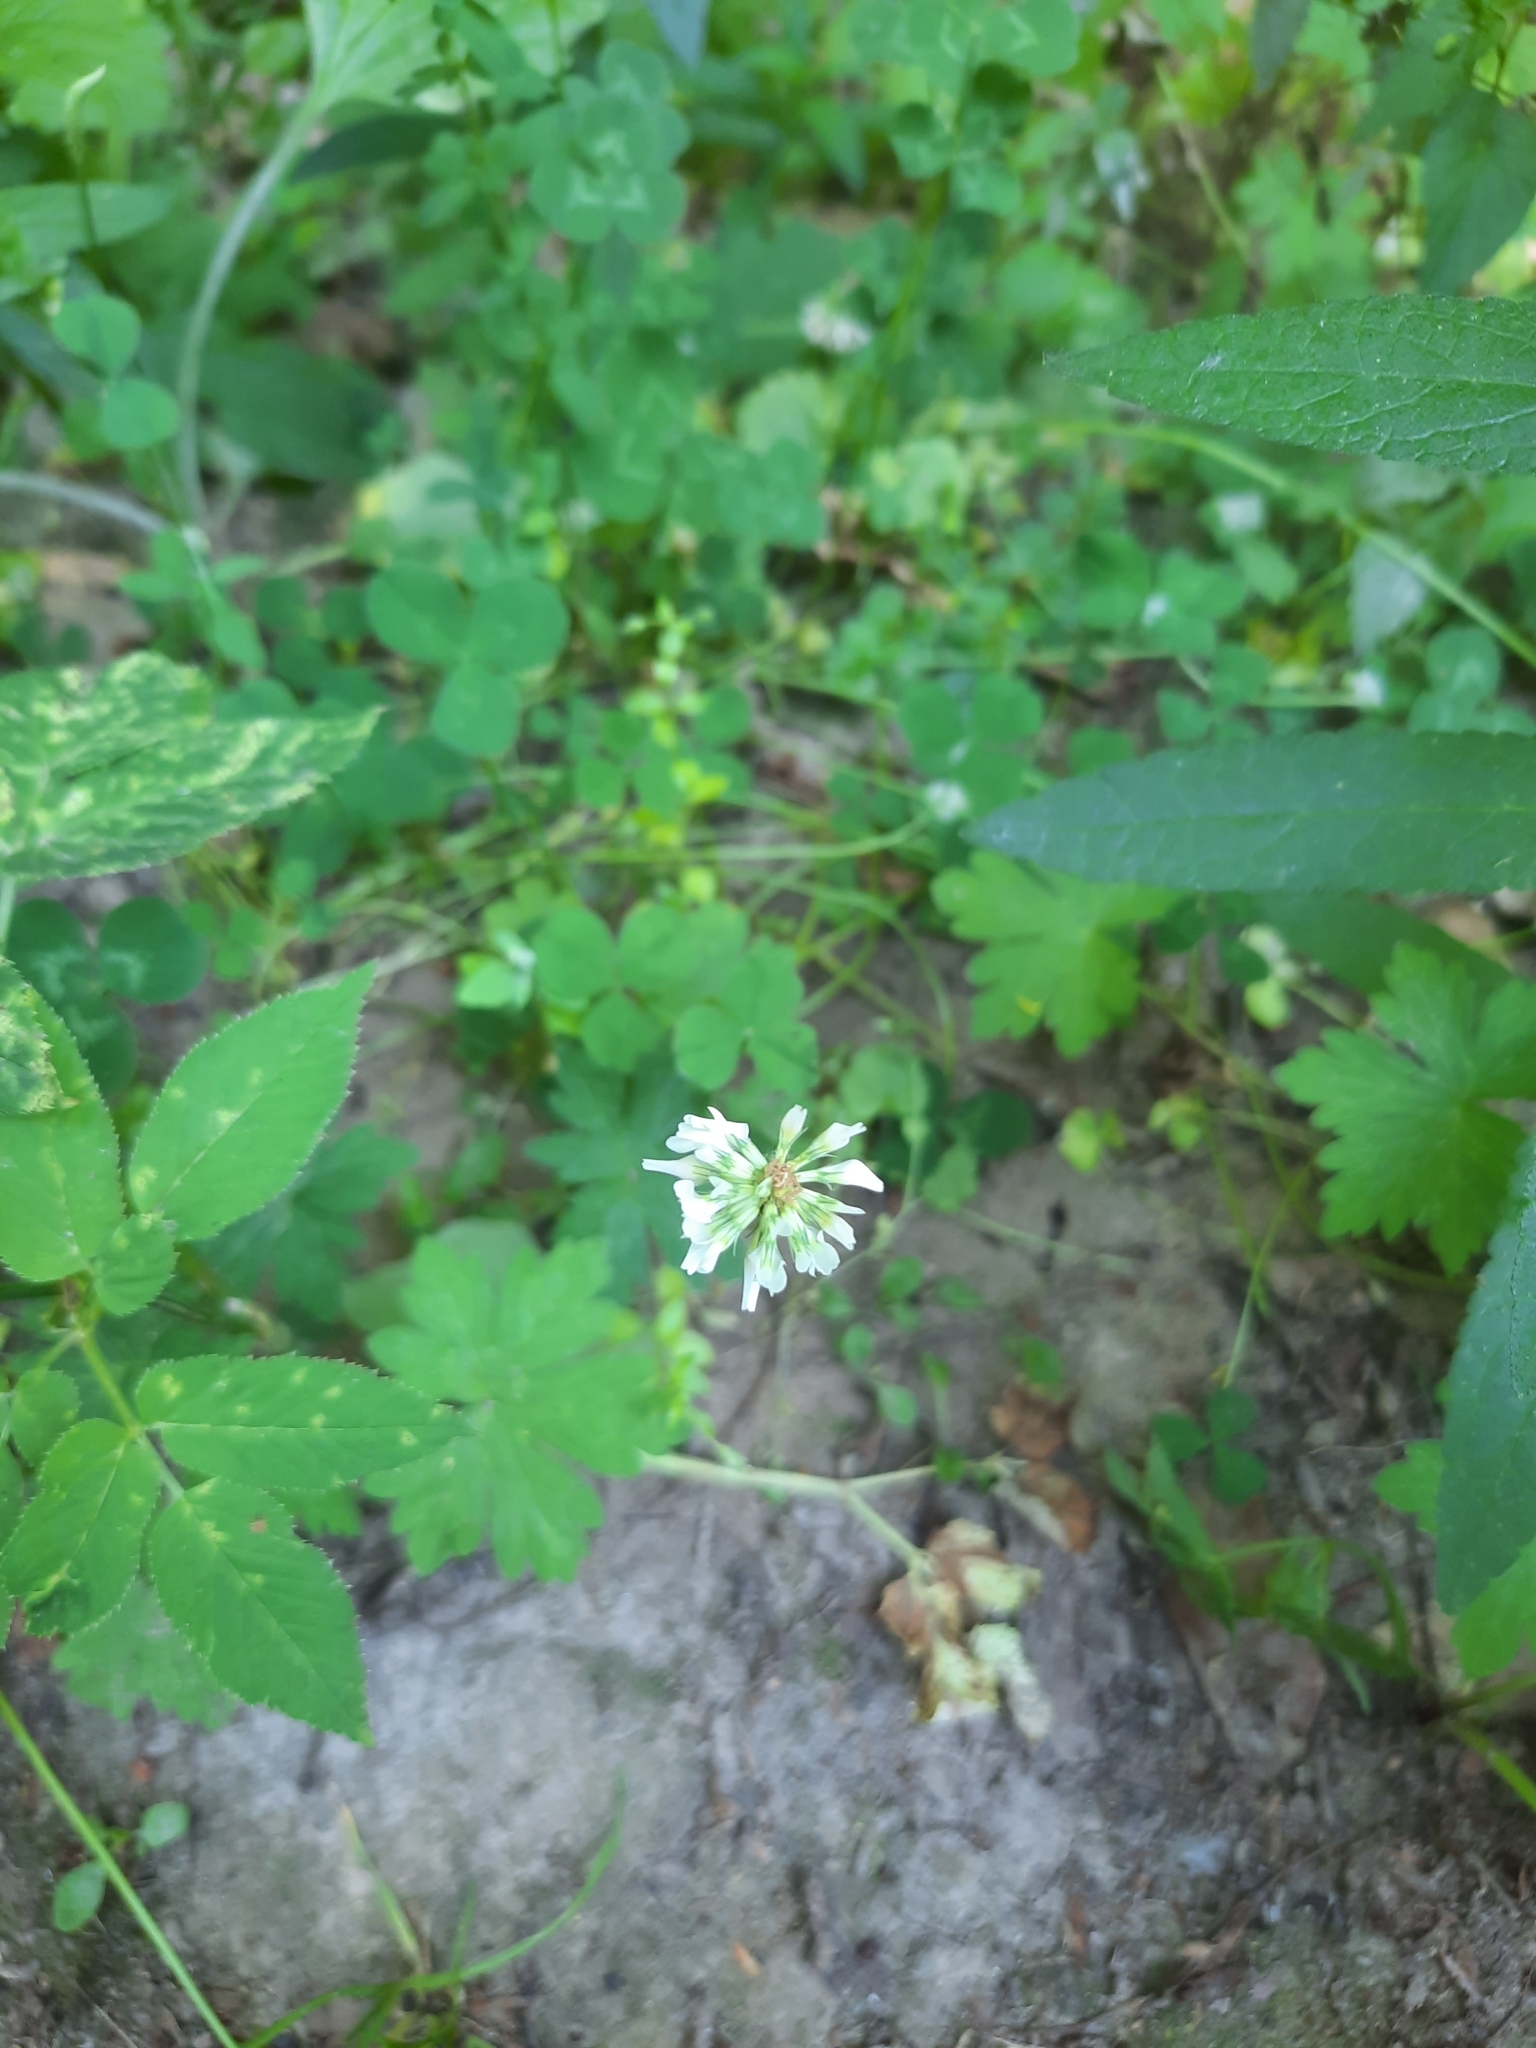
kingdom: Plantae
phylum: Tracheophyta
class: Magnoliopsida
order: Fabales
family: Fabaceae
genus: Trifolium
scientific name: Trifolium repens
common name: White clover
